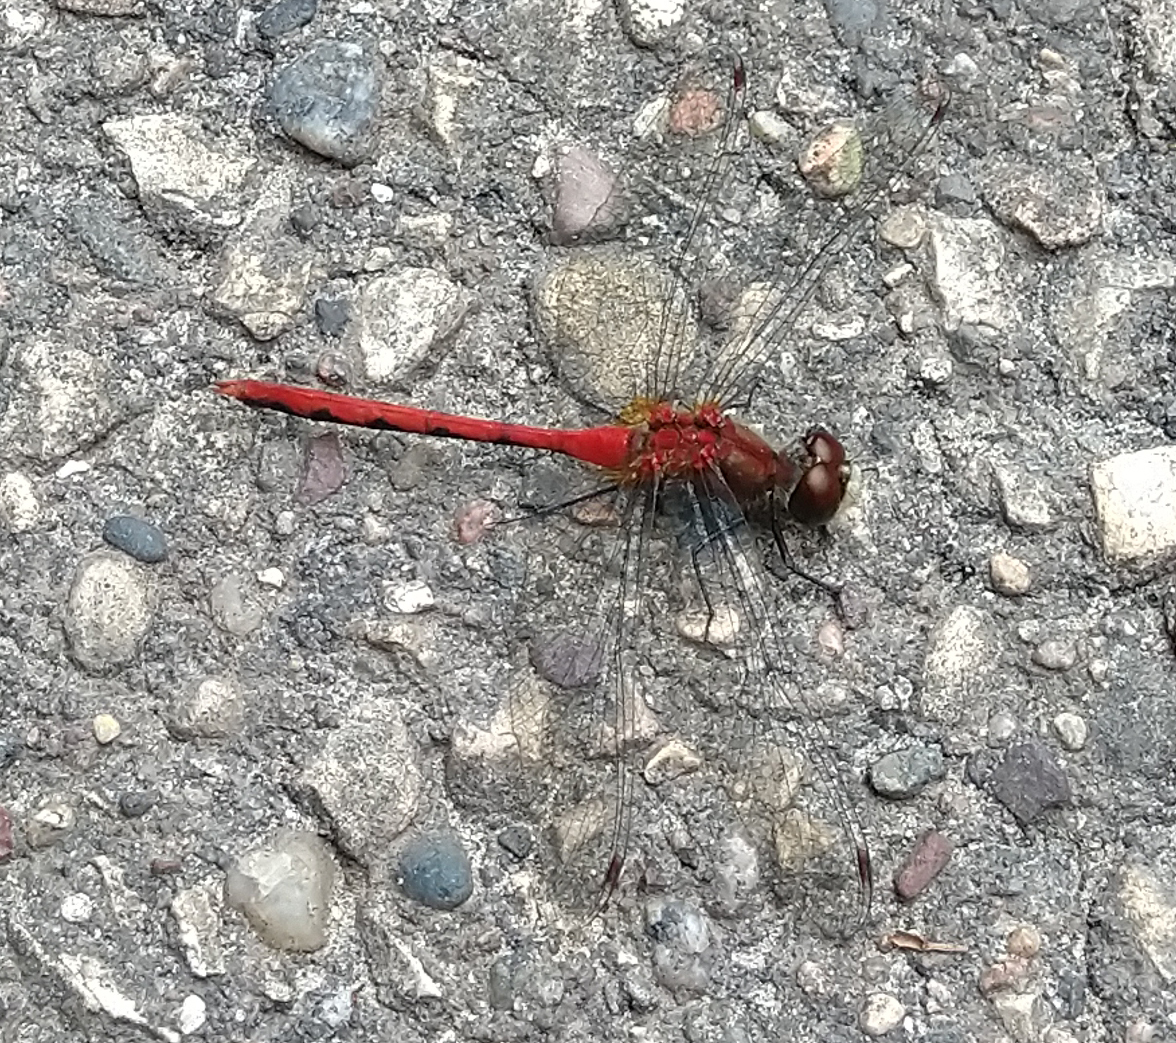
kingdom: Animalia
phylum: Arthropoda
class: Insecta
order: Odonata
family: Libellulidae
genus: Sympetrum
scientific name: Sympetrum obtrusum
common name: White-faced meadowhawk
